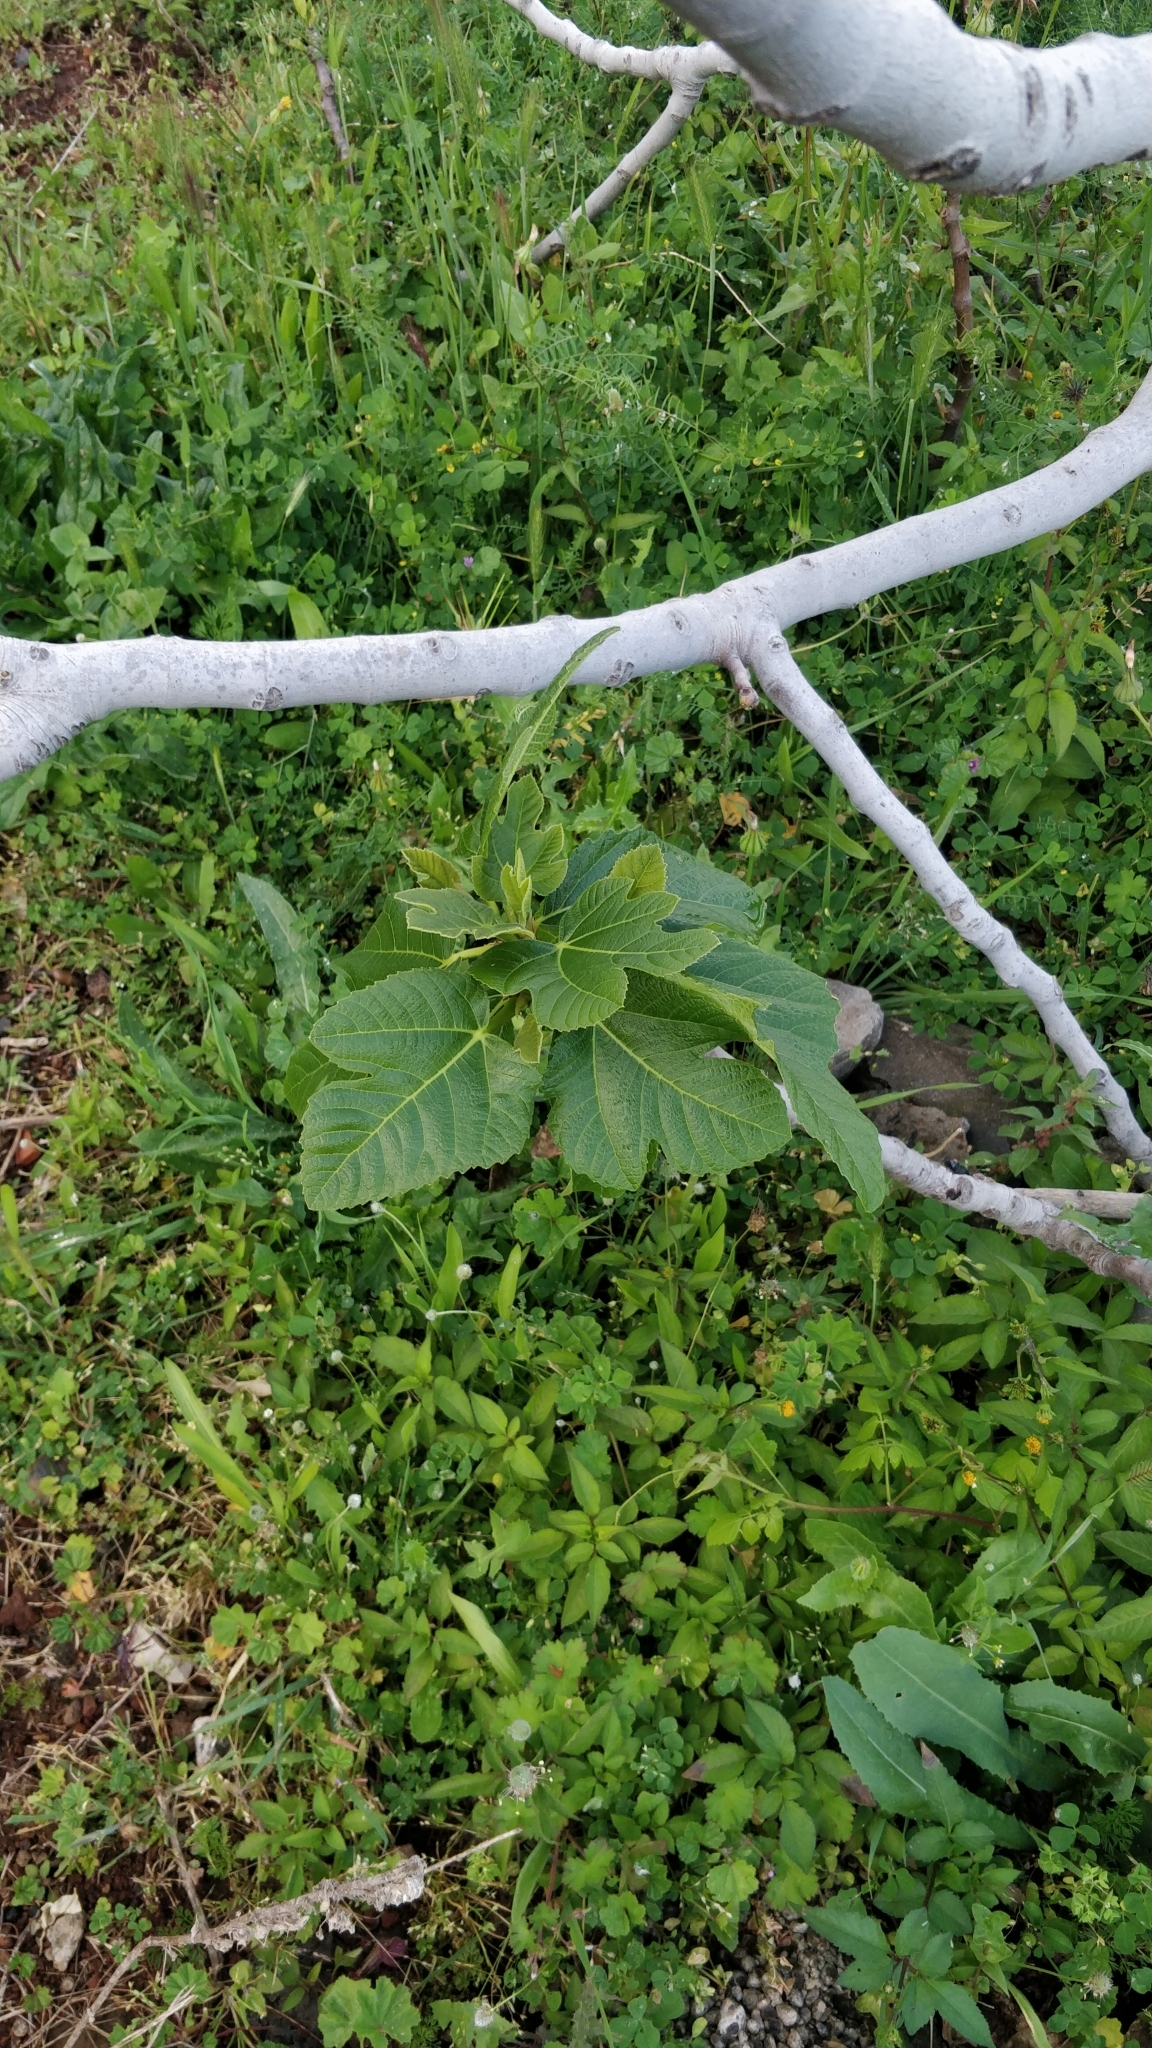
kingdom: Plantae
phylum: Tracheophyta
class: Magnoliopsida
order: Rosales
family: Moraceae
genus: Ficus
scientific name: Ficus carica
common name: Fig
